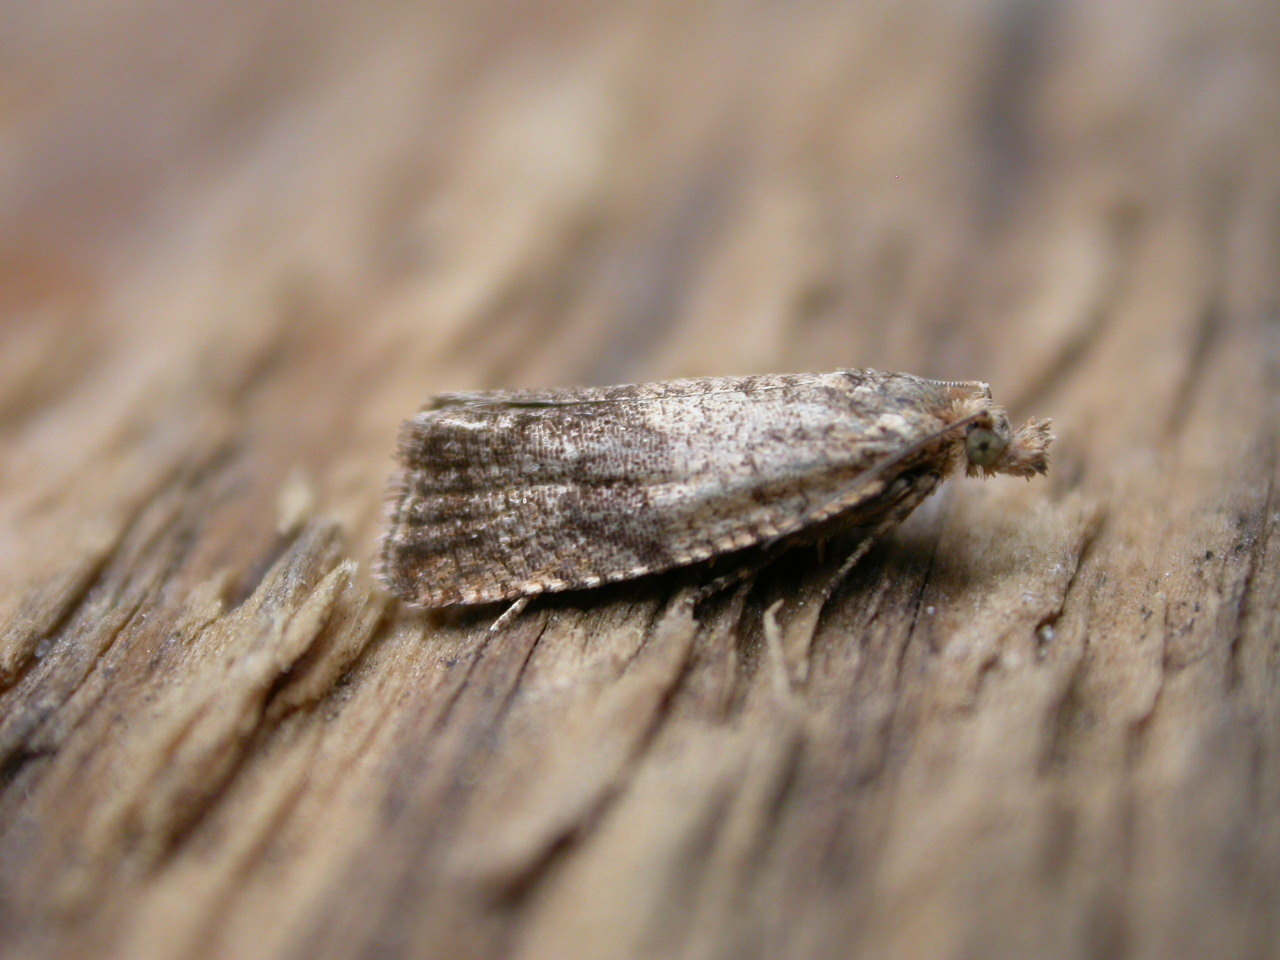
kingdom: Animalia
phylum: Arthropoda
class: Insecta
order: Lepidoptera
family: Tortricidae
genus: Celypha
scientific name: Celypha striana
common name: Barred marble
